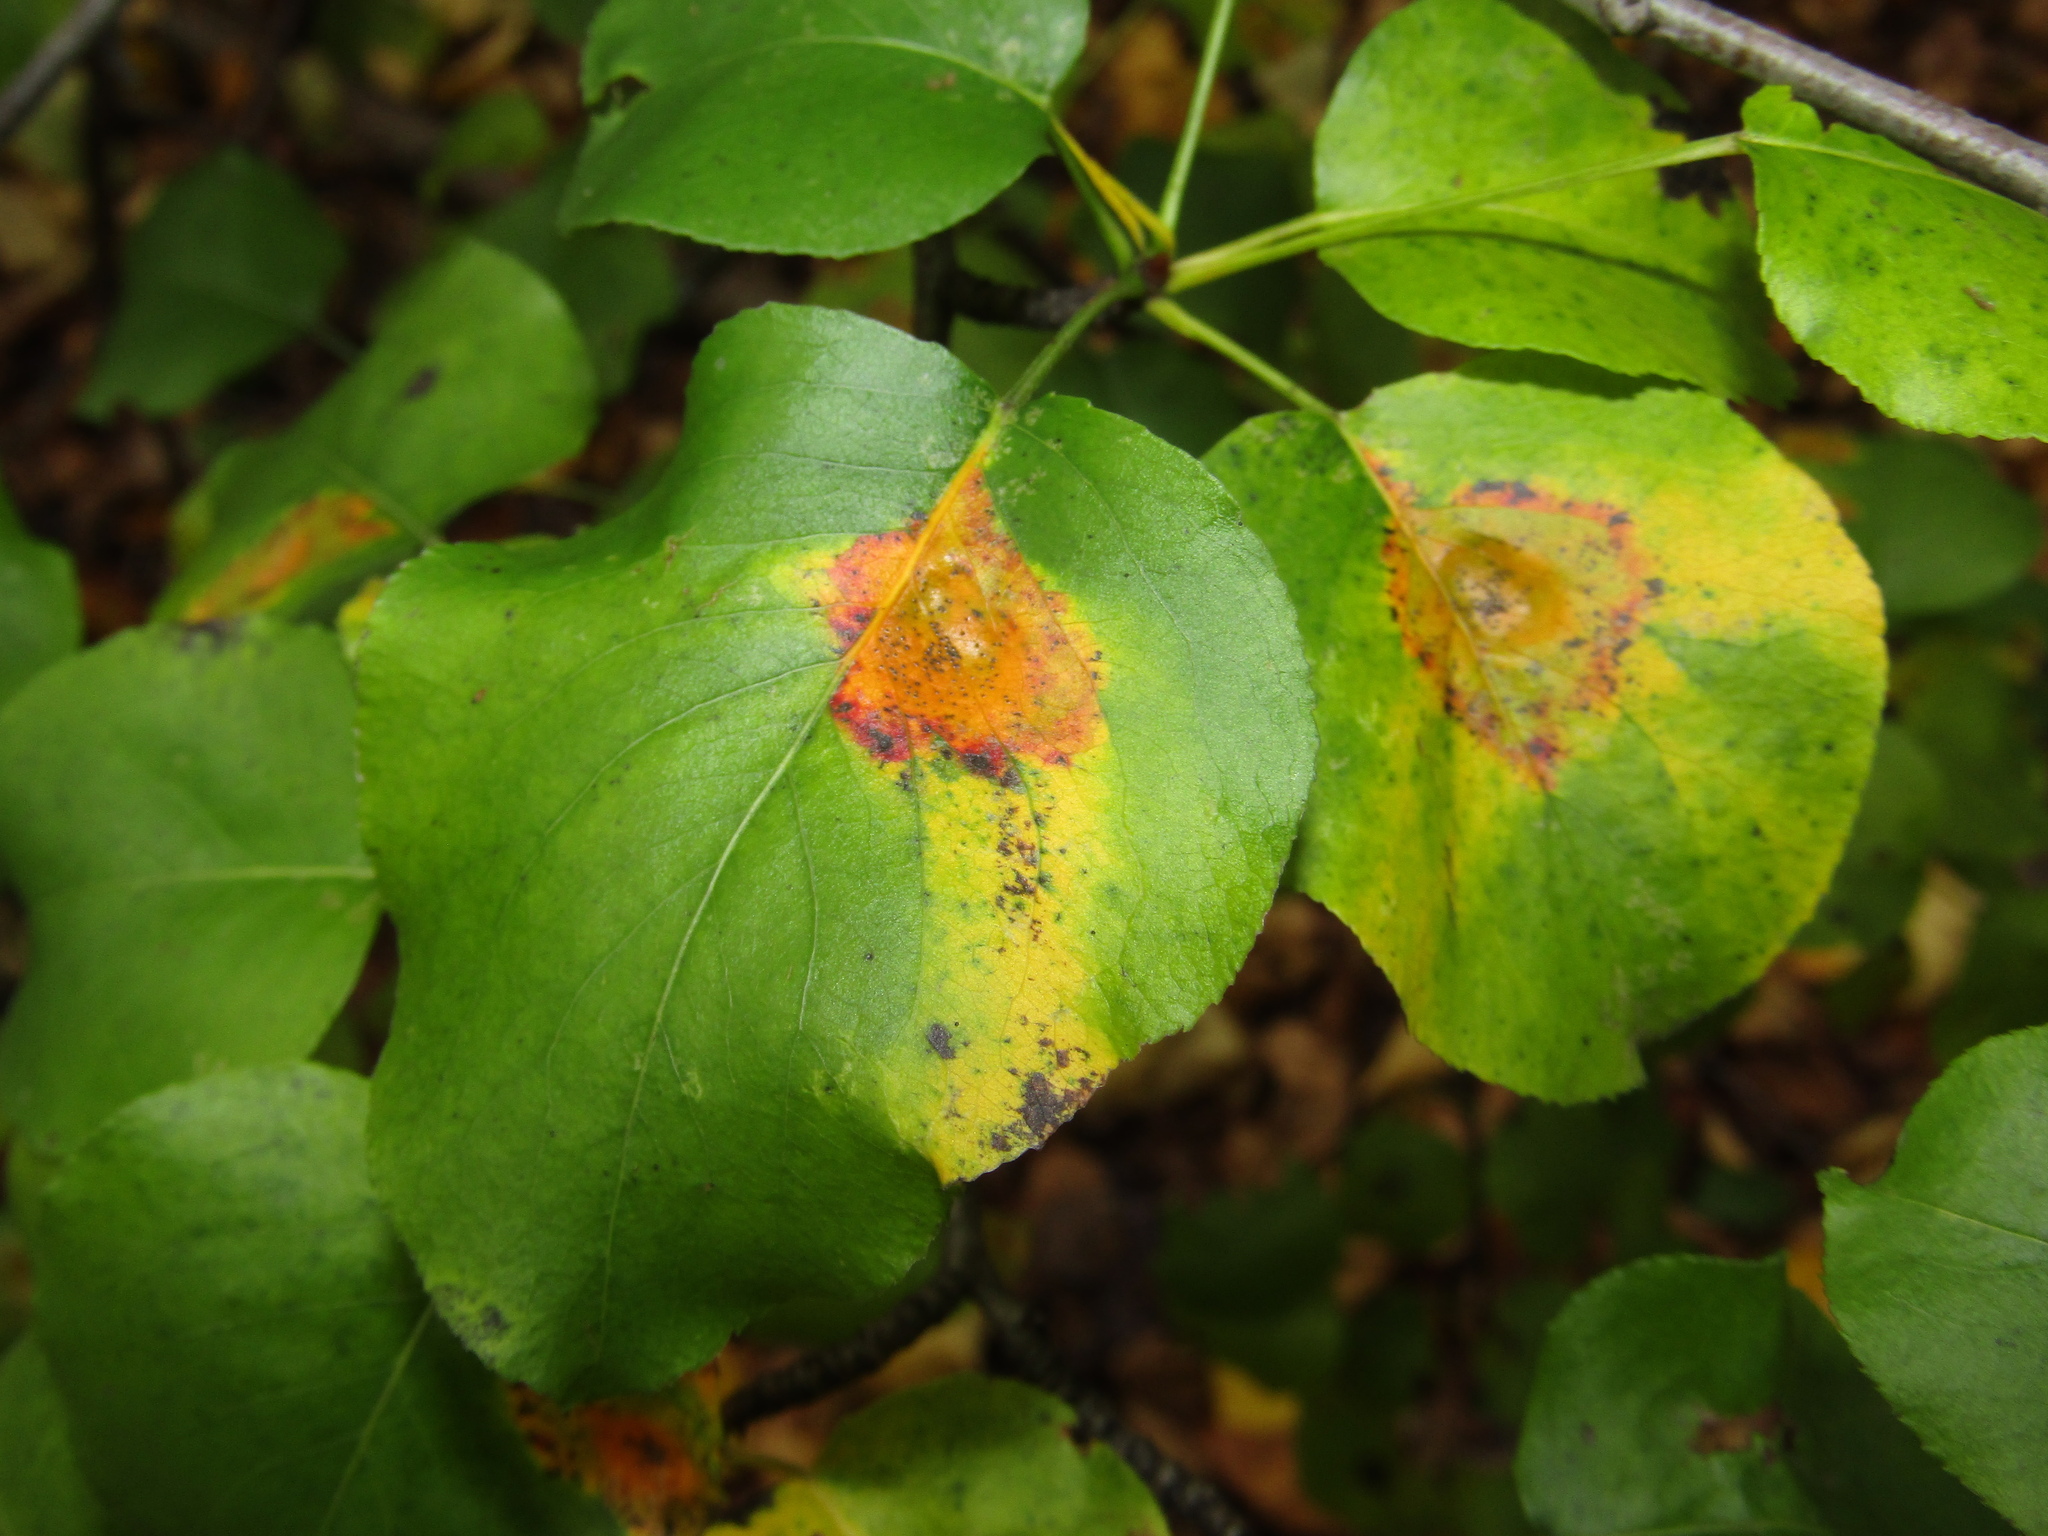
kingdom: Plantae
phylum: Tracheophyta
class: Magnoliopsida
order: Rosales
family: Rosaceae
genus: Pyrus
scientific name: Pyrus communis
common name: Pear
